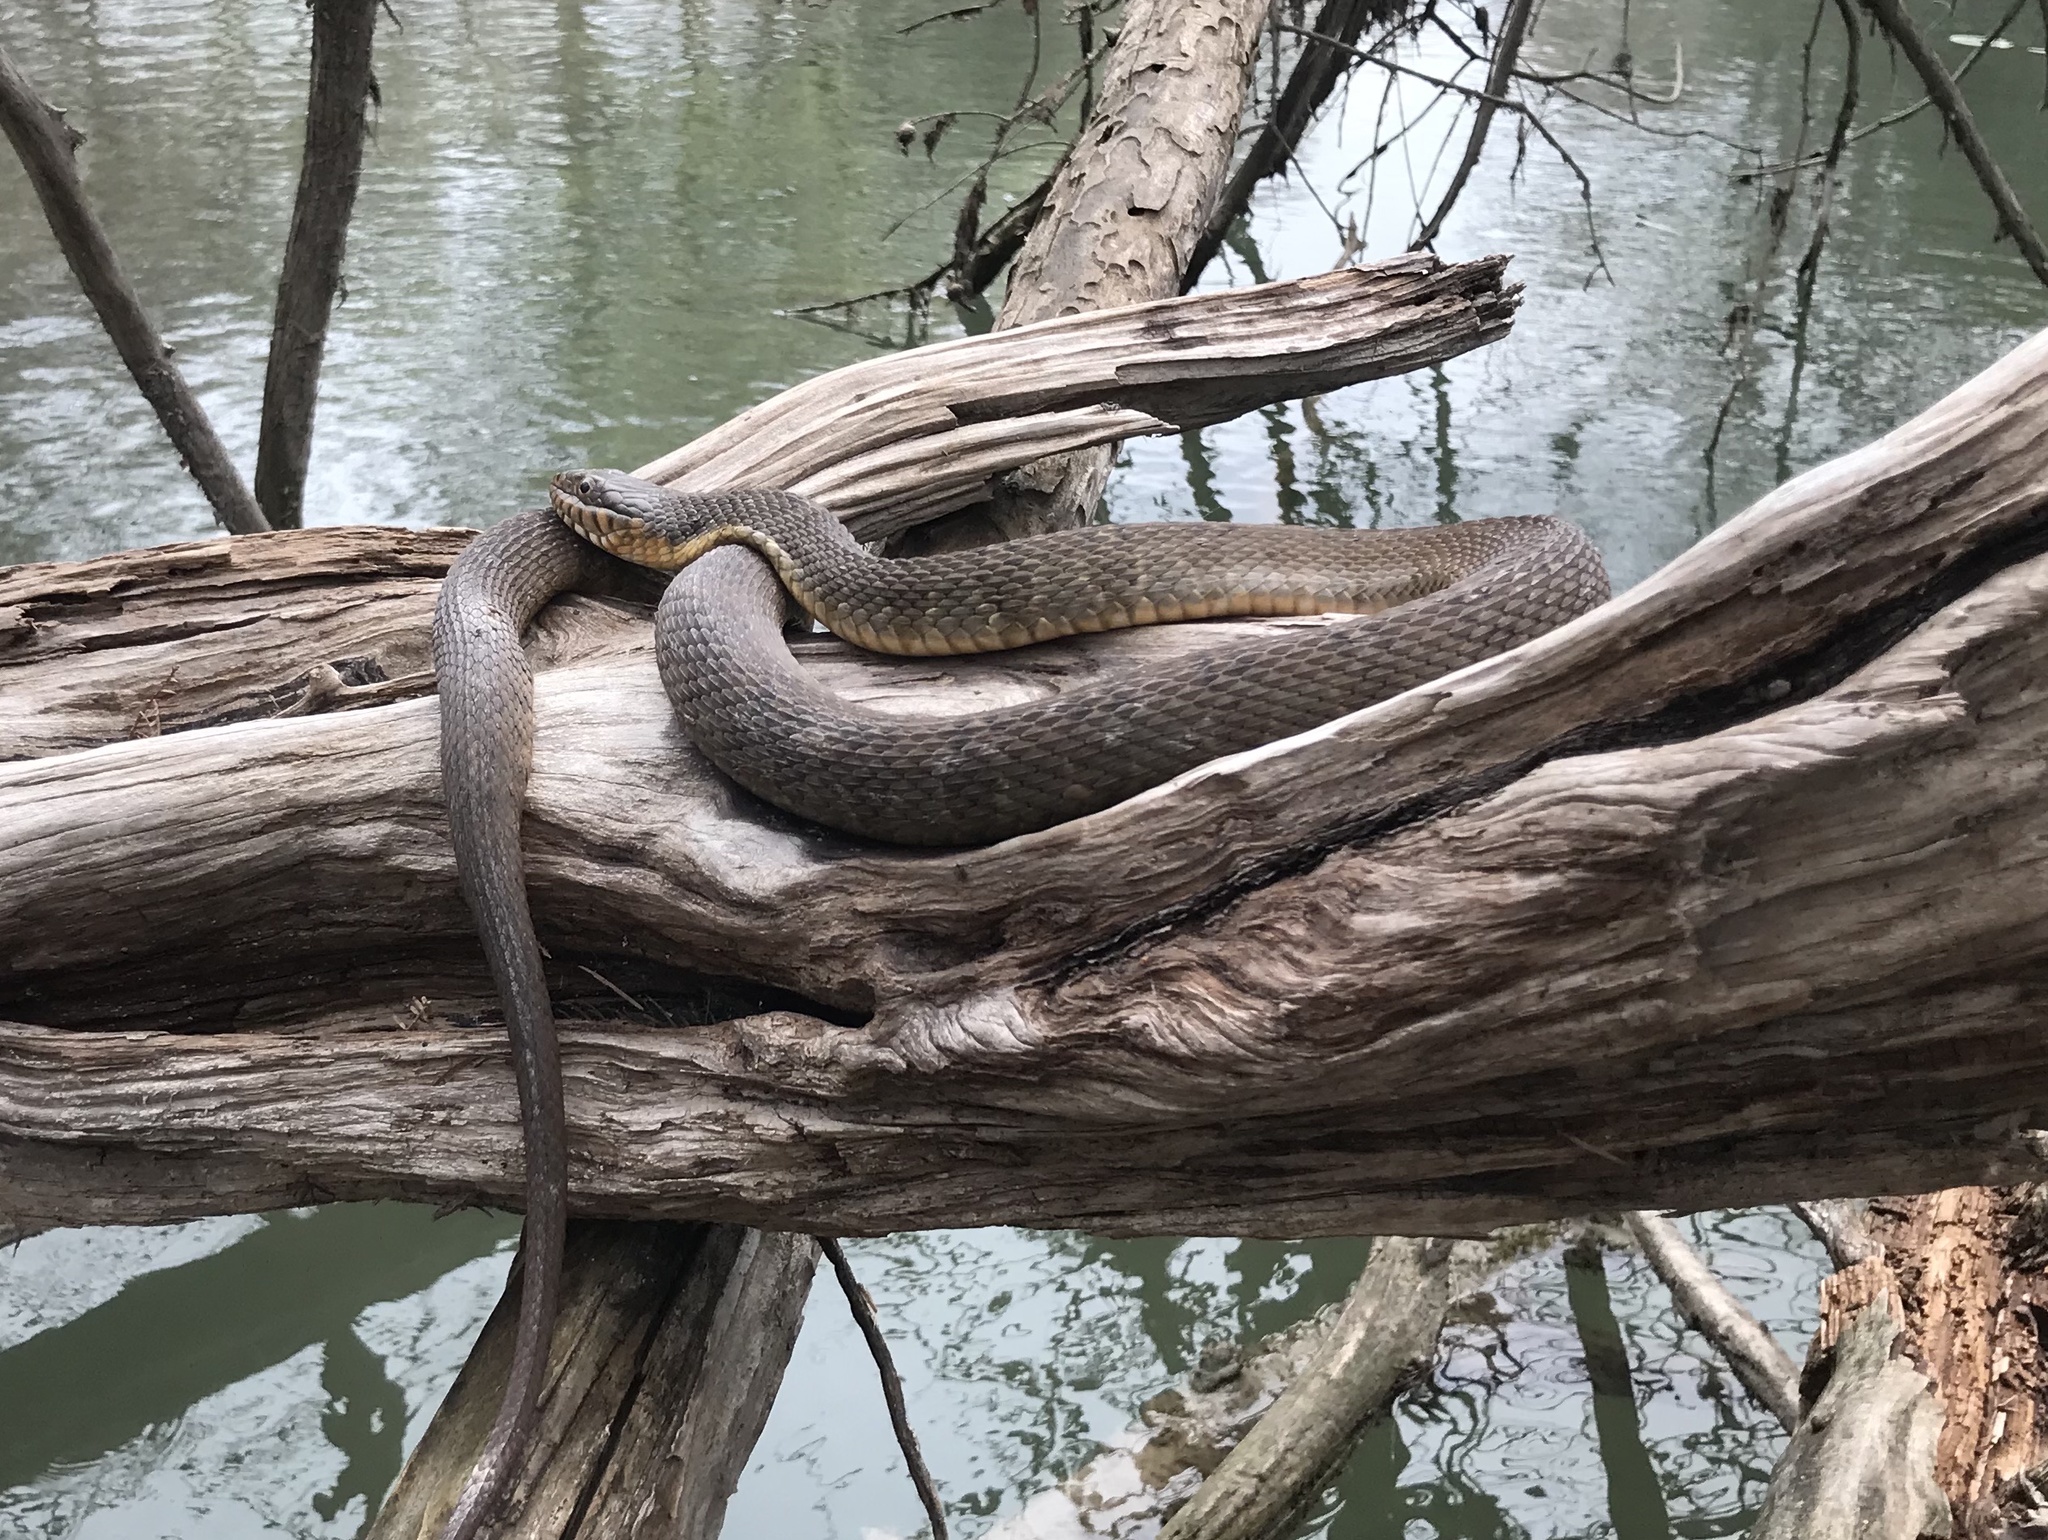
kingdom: Animalia
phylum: Chordata
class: Squamata
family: Colubridae
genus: Nerodia
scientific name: Nerodia erythrogaster
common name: Plainbelly water snake
